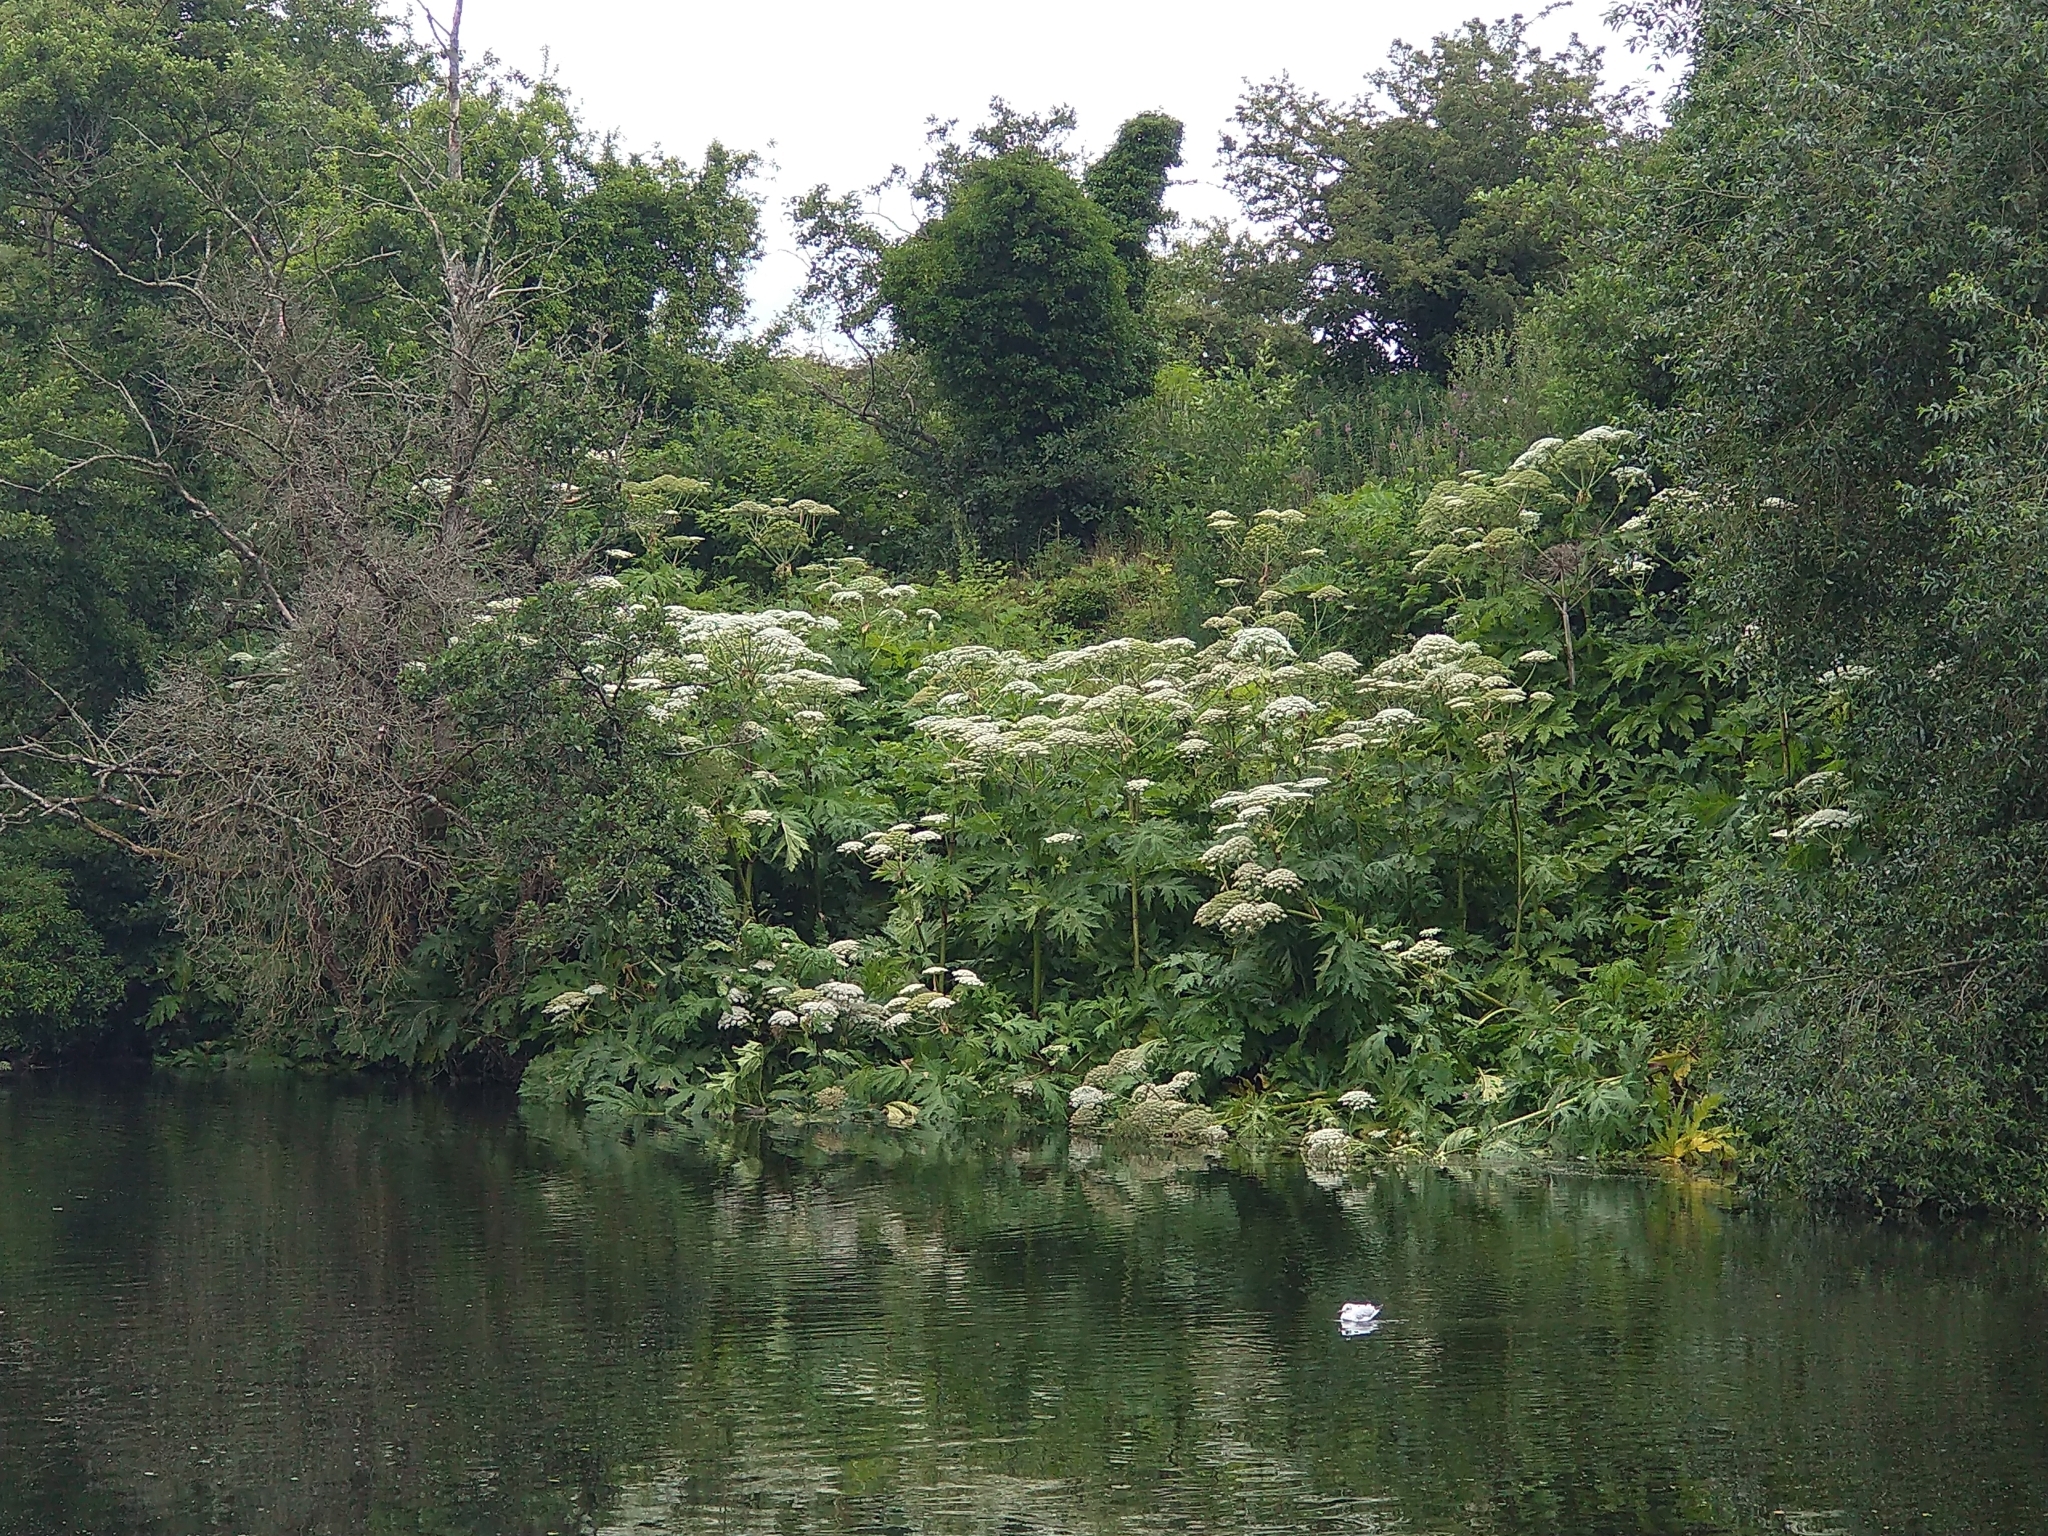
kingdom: Plantae
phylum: Tracheophyta
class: Magnoliopsida
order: Apiales
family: Apiaceae
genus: Heracleum
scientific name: Heracleum mantegazzianum
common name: Giant hogweed
